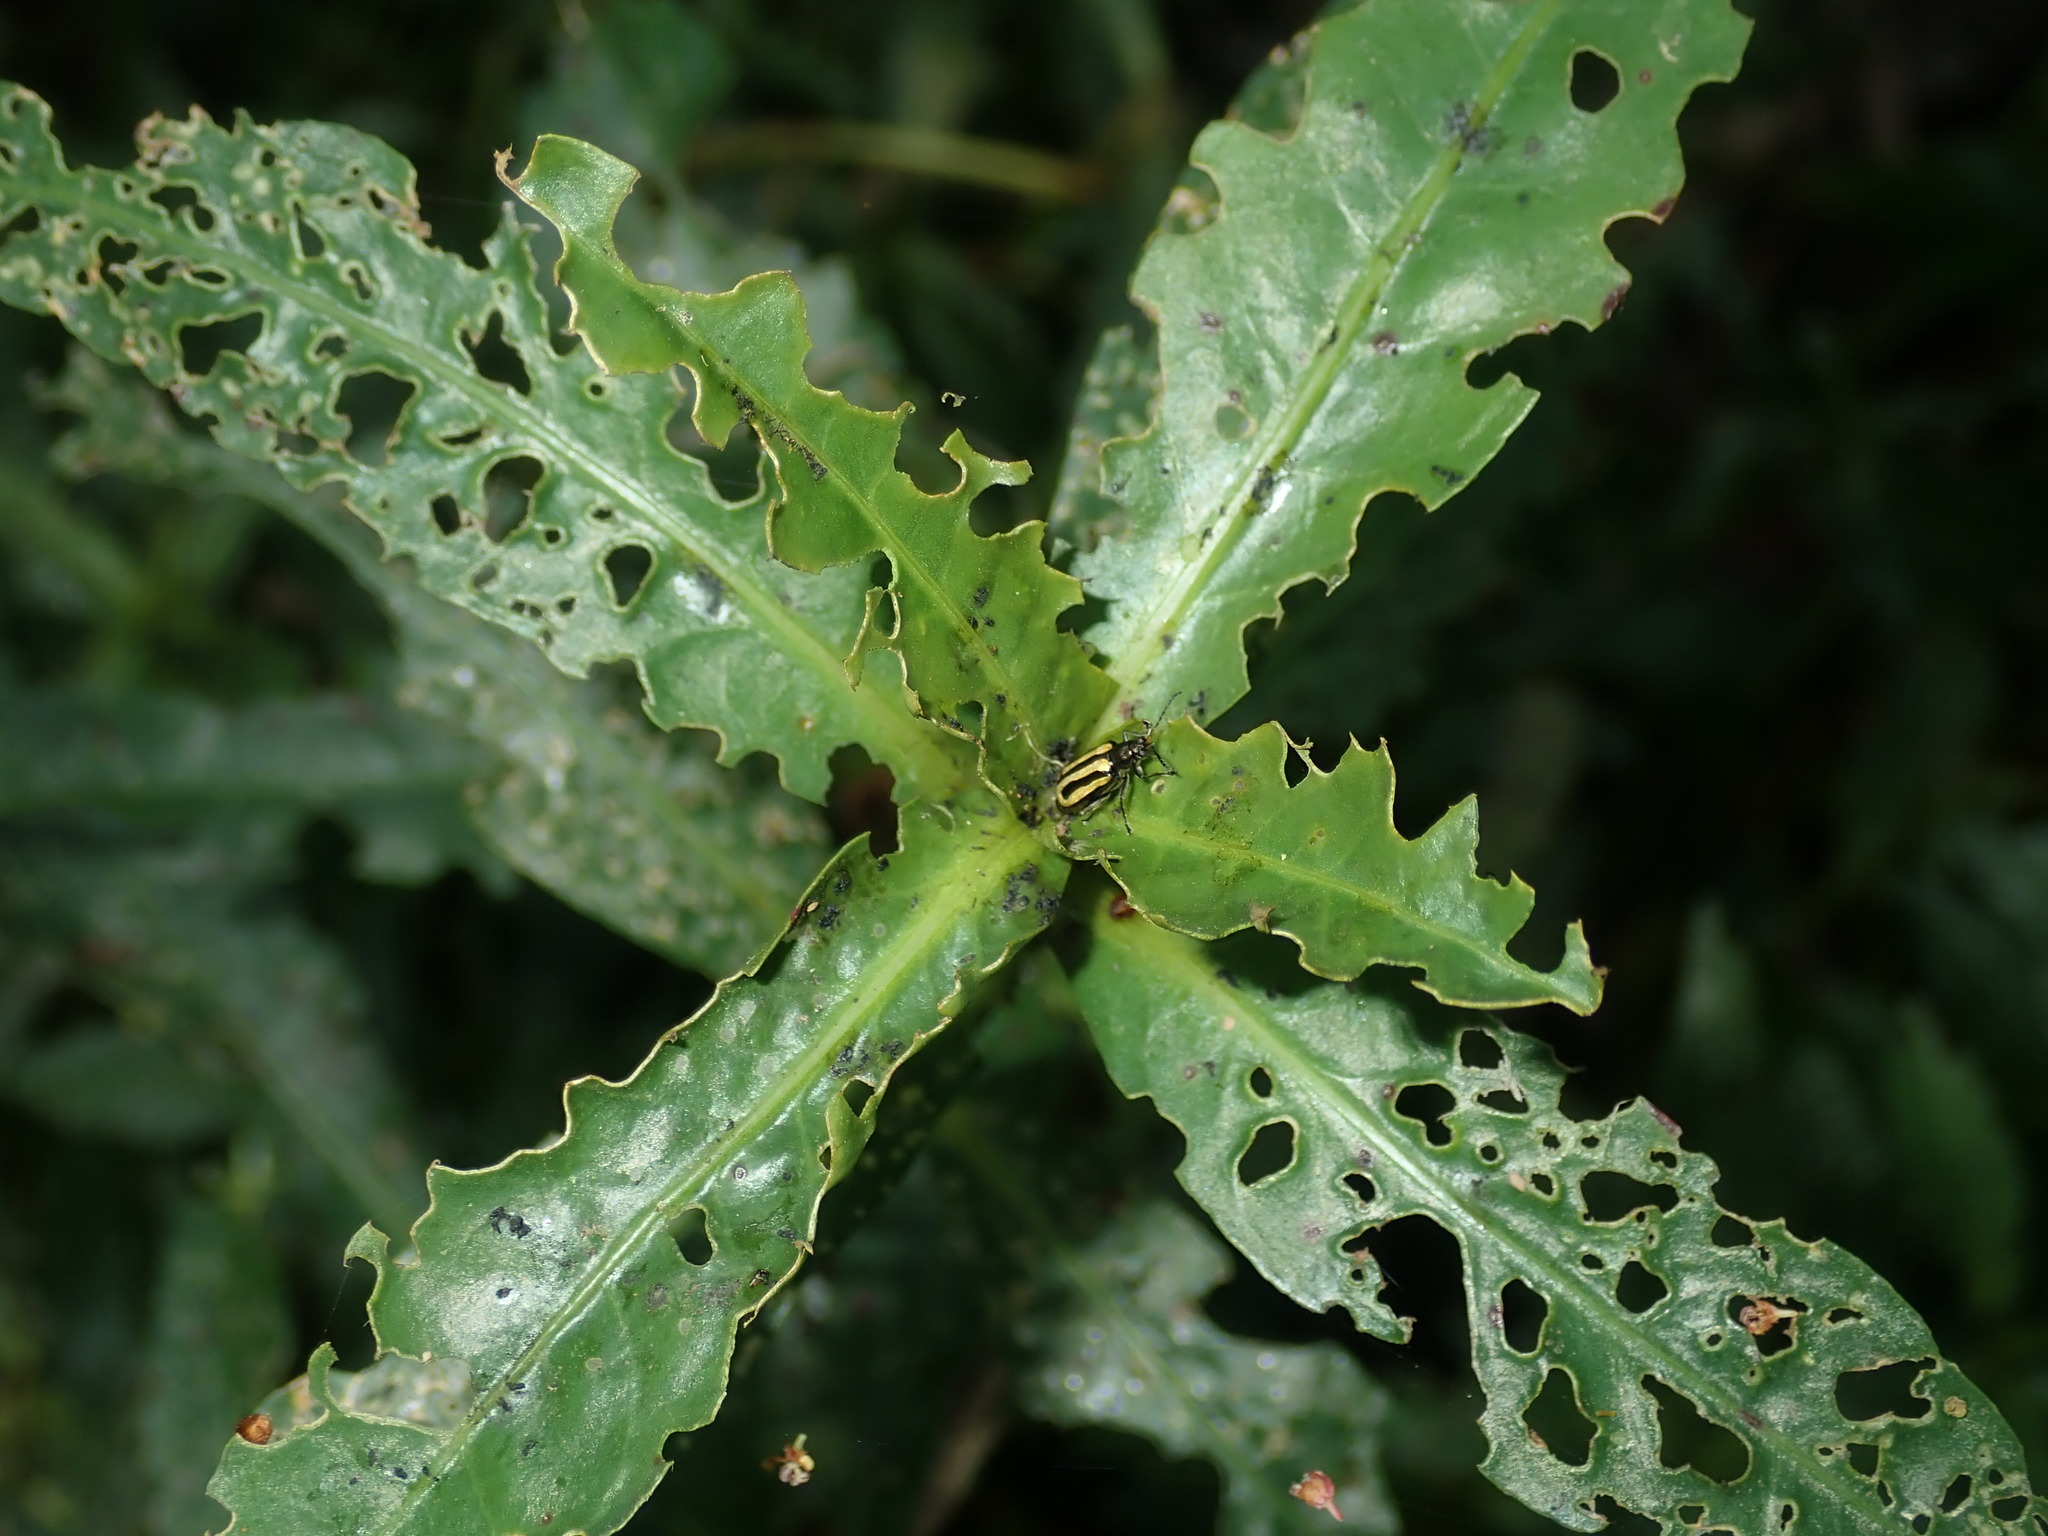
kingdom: Animalia
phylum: Arthropoda
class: Insecta
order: Coleoptera
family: Chrysomelidae
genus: Agasicles
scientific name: Agasicles hygrophila
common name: Alligatorweed flea beetle
